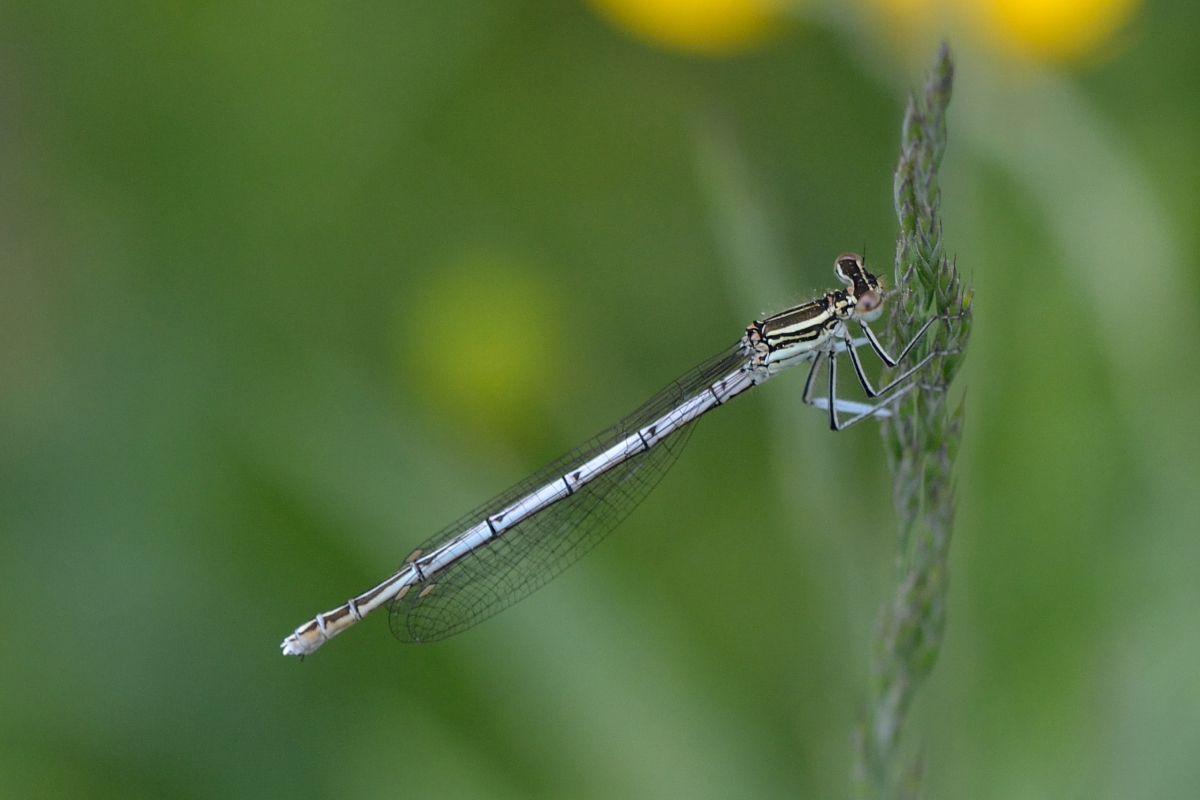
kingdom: Animalia
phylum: Arthropoda
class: Insecta
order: Odonata
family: Platycnemididae
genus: Platycnemis
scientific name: Platycnemis pennipes
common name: White-legged damselfly
